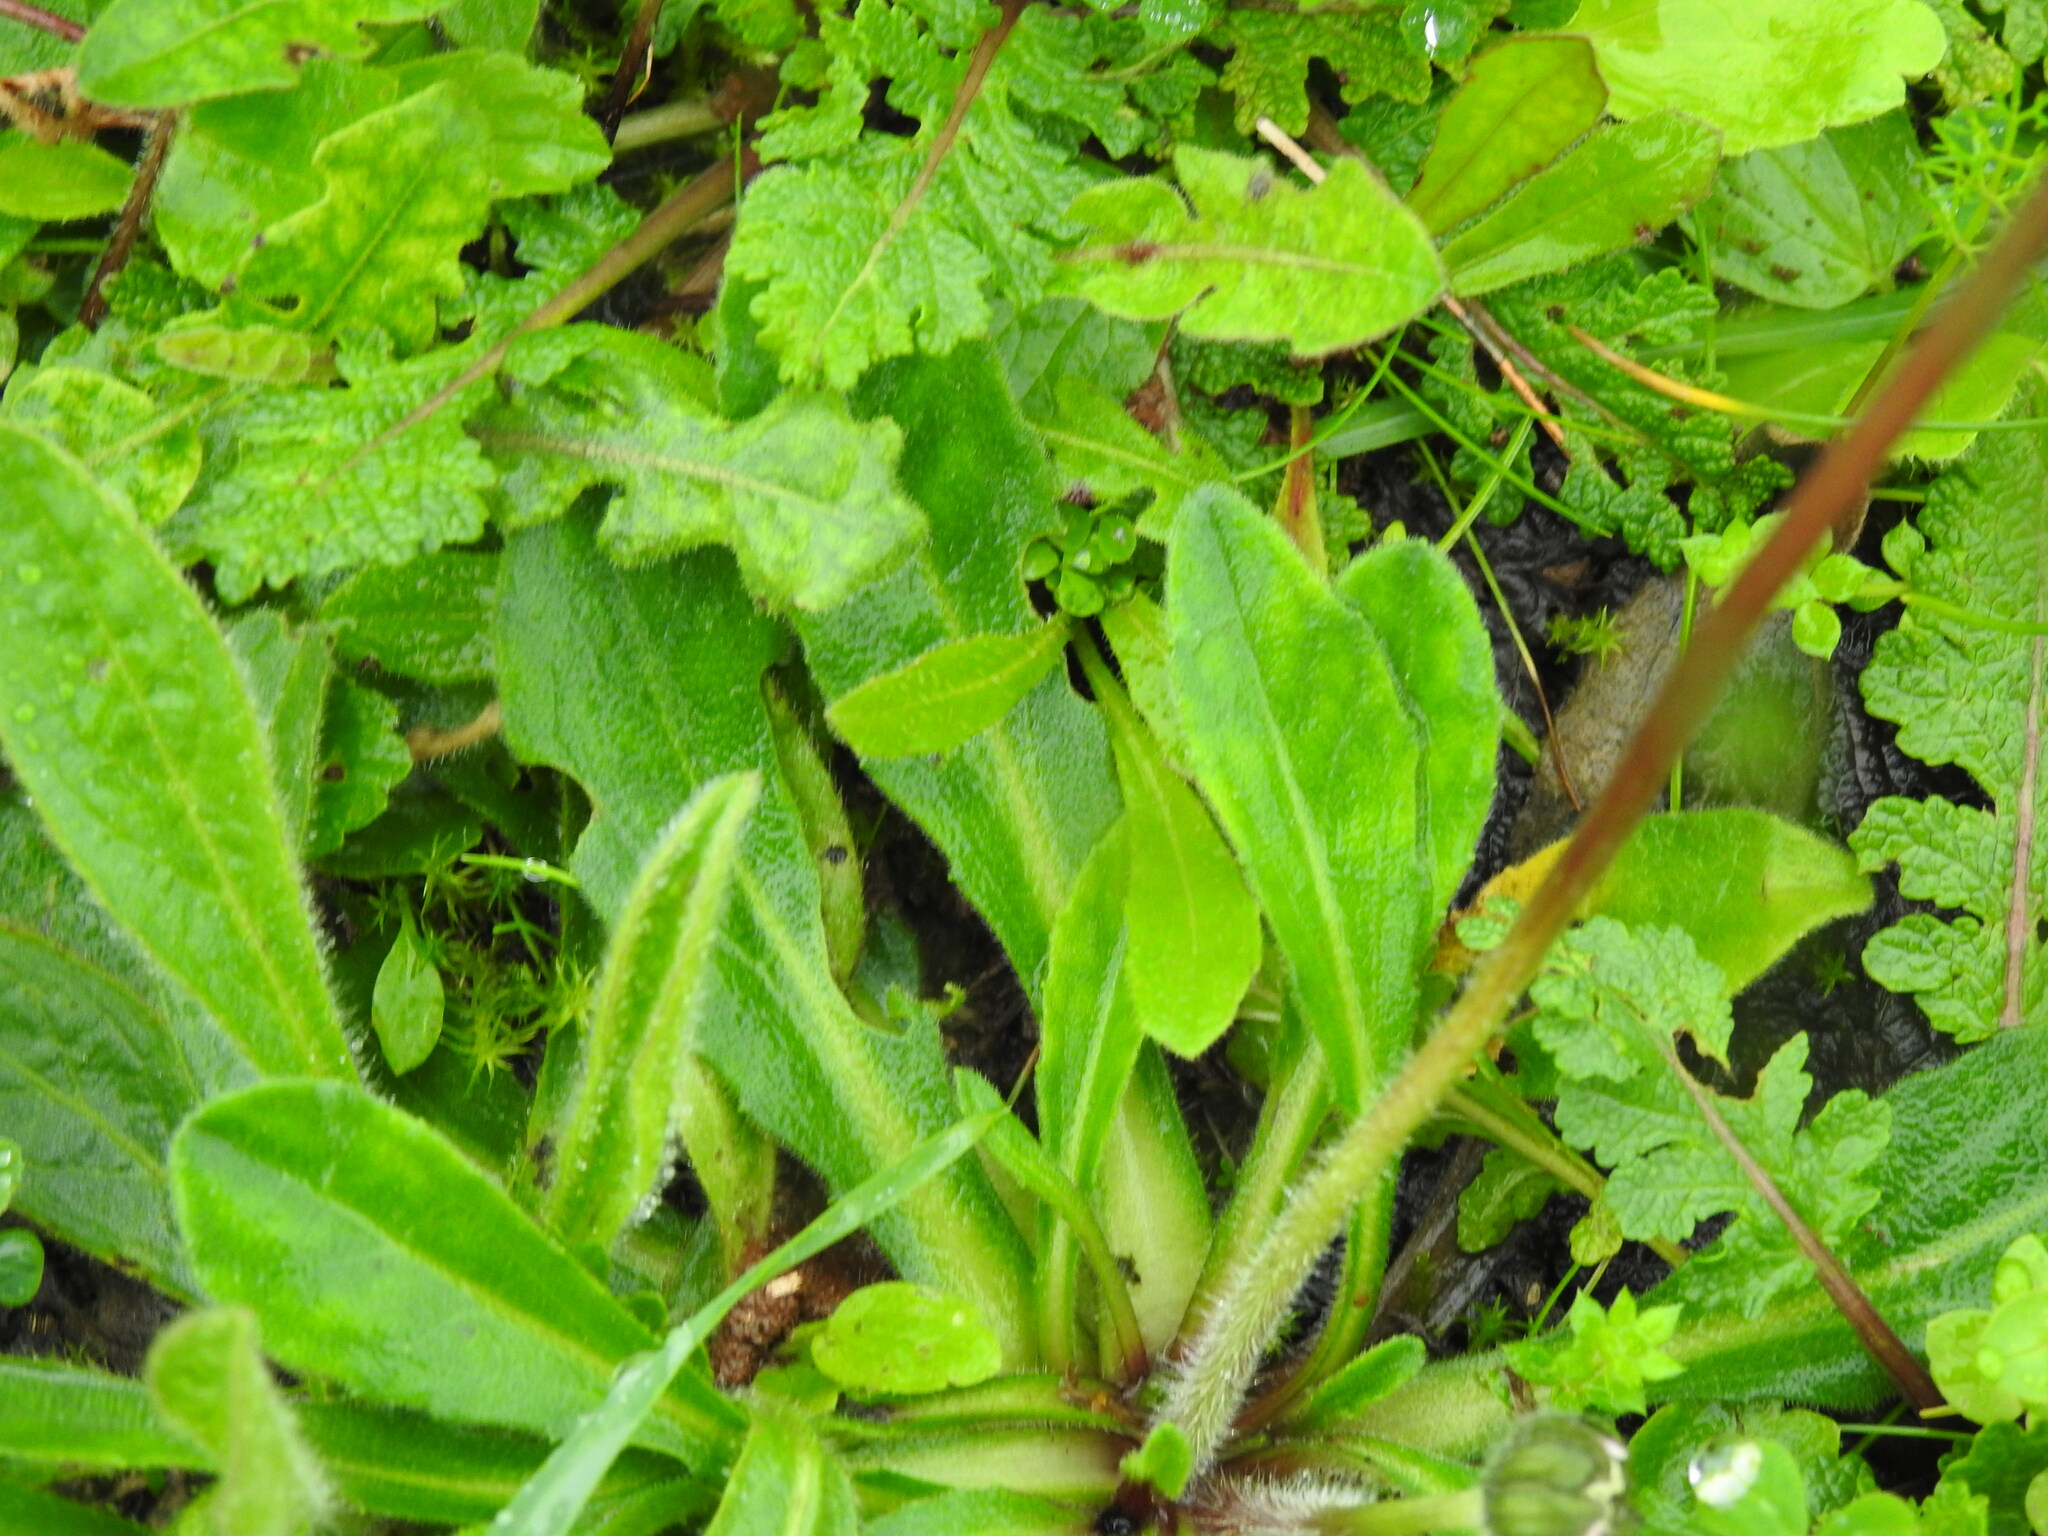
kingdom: Plantae
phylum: Tracheophyta
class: Magnoliopsida
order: Asterales
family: Asteraceae
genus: Bellis
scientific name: Bellis sylvestris
